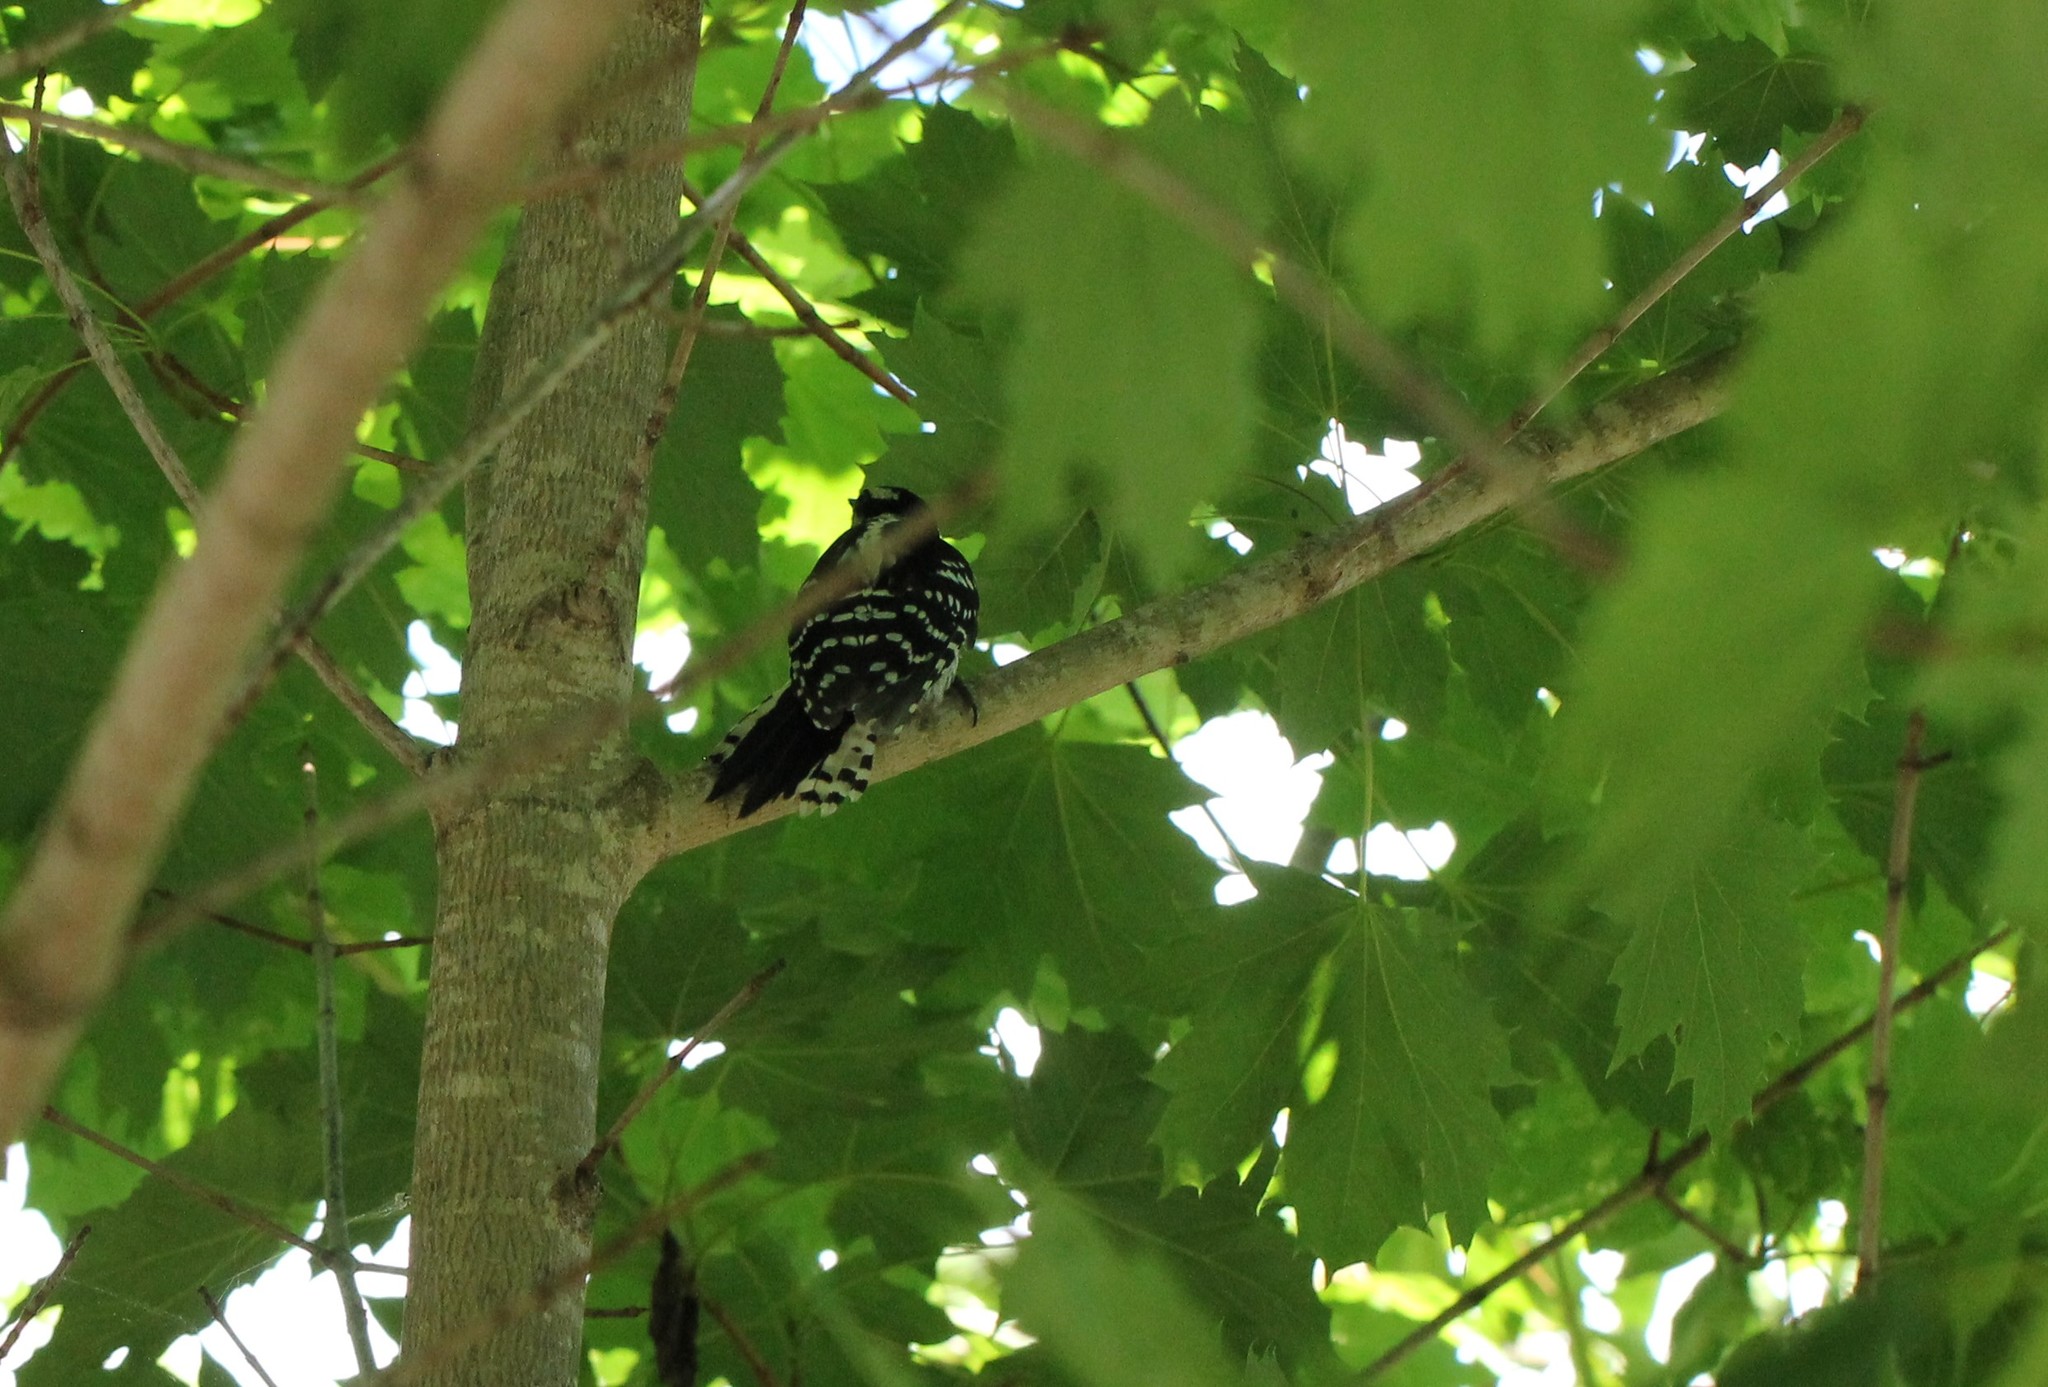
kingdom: Animalia
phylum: Chordata
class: Aves
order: Piciformes
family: Picidae
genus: Dryobates
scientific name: Dryobates pubescens
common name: Downy woodpecker
